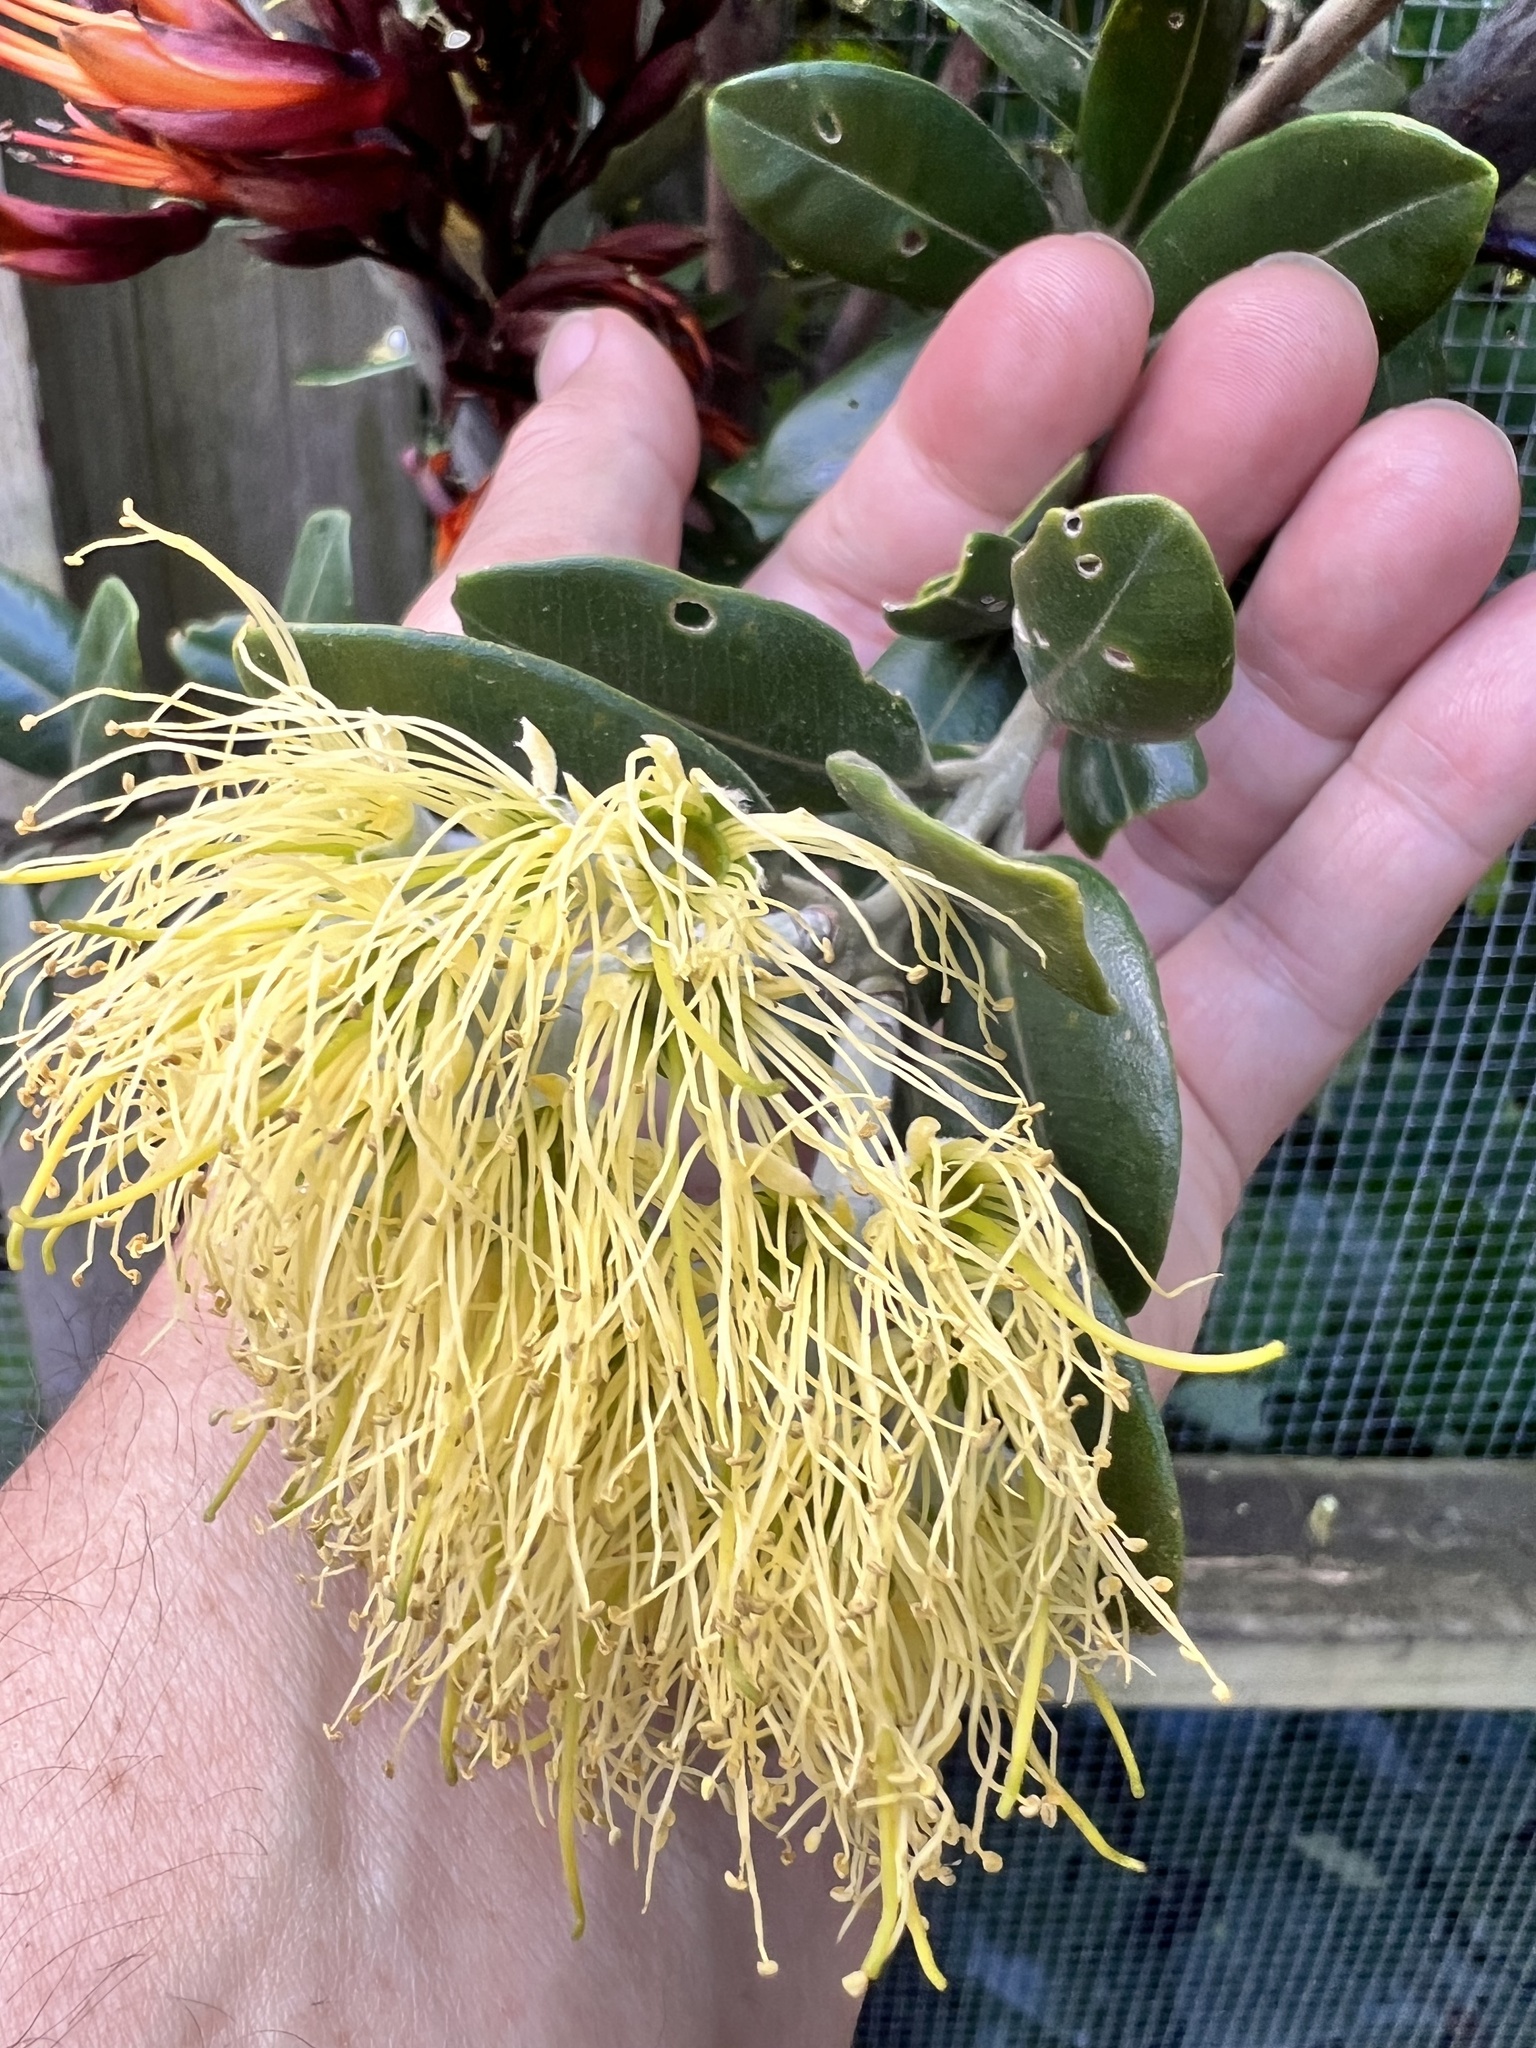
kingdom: Plantae
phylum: Tracheophyta
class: Magnoliopsida
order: Myrtales
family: Myrtaceae
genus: Metrosideros
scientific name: Metrosideros excelsa
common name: New zealand christmastree
